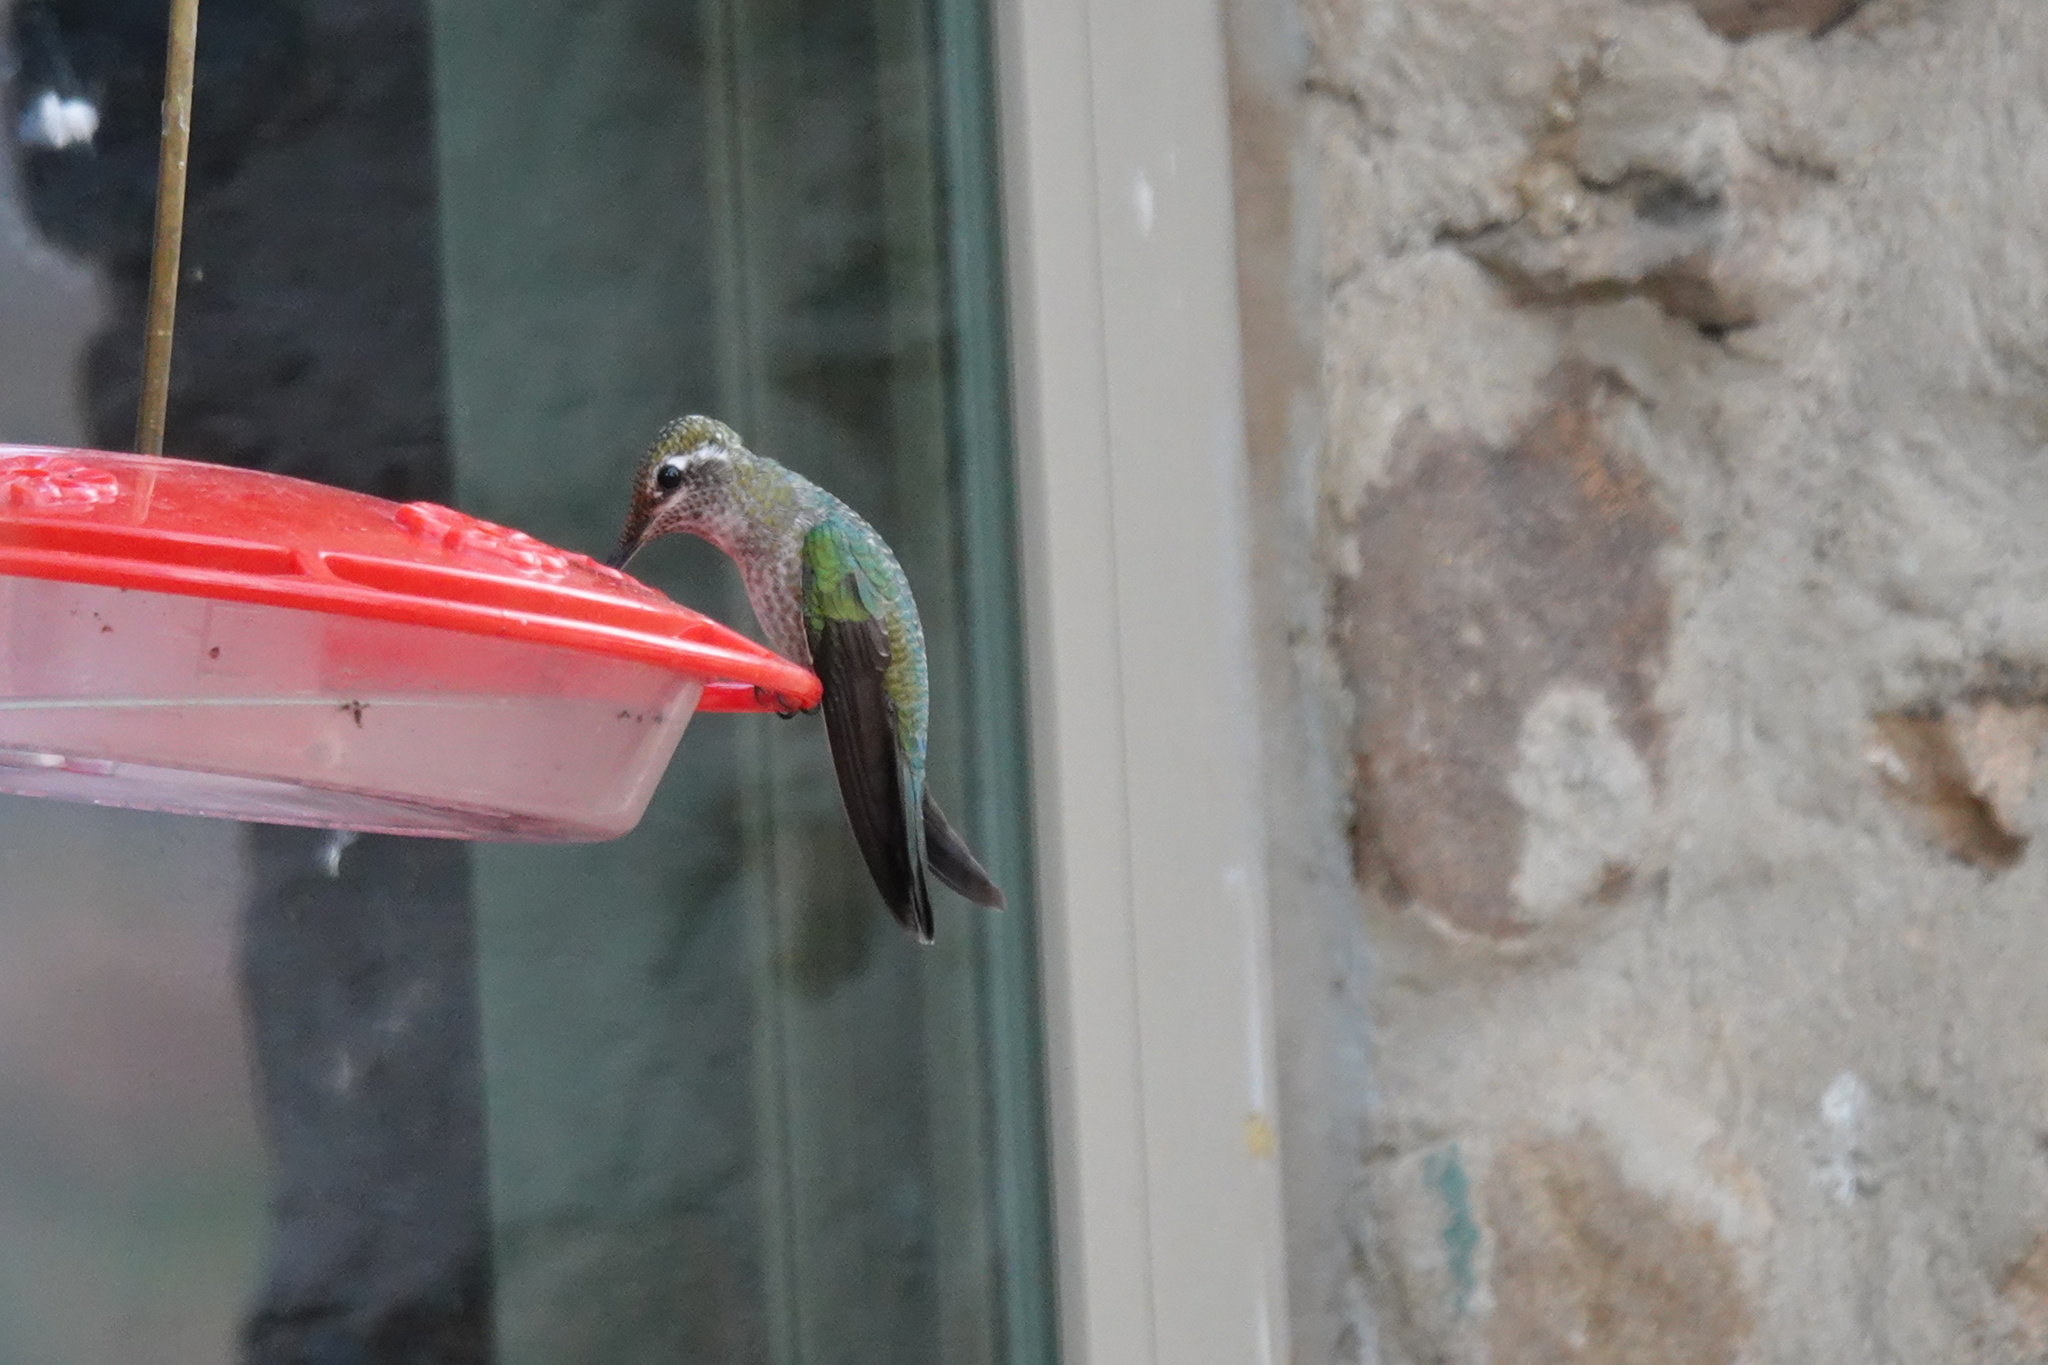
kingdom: Animalia
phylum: Chordata
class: Aves
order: Apodiformes
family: Trochilidae
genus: Eugenes
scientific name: Eugenes fulgens
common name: Magnificent hummingbird
